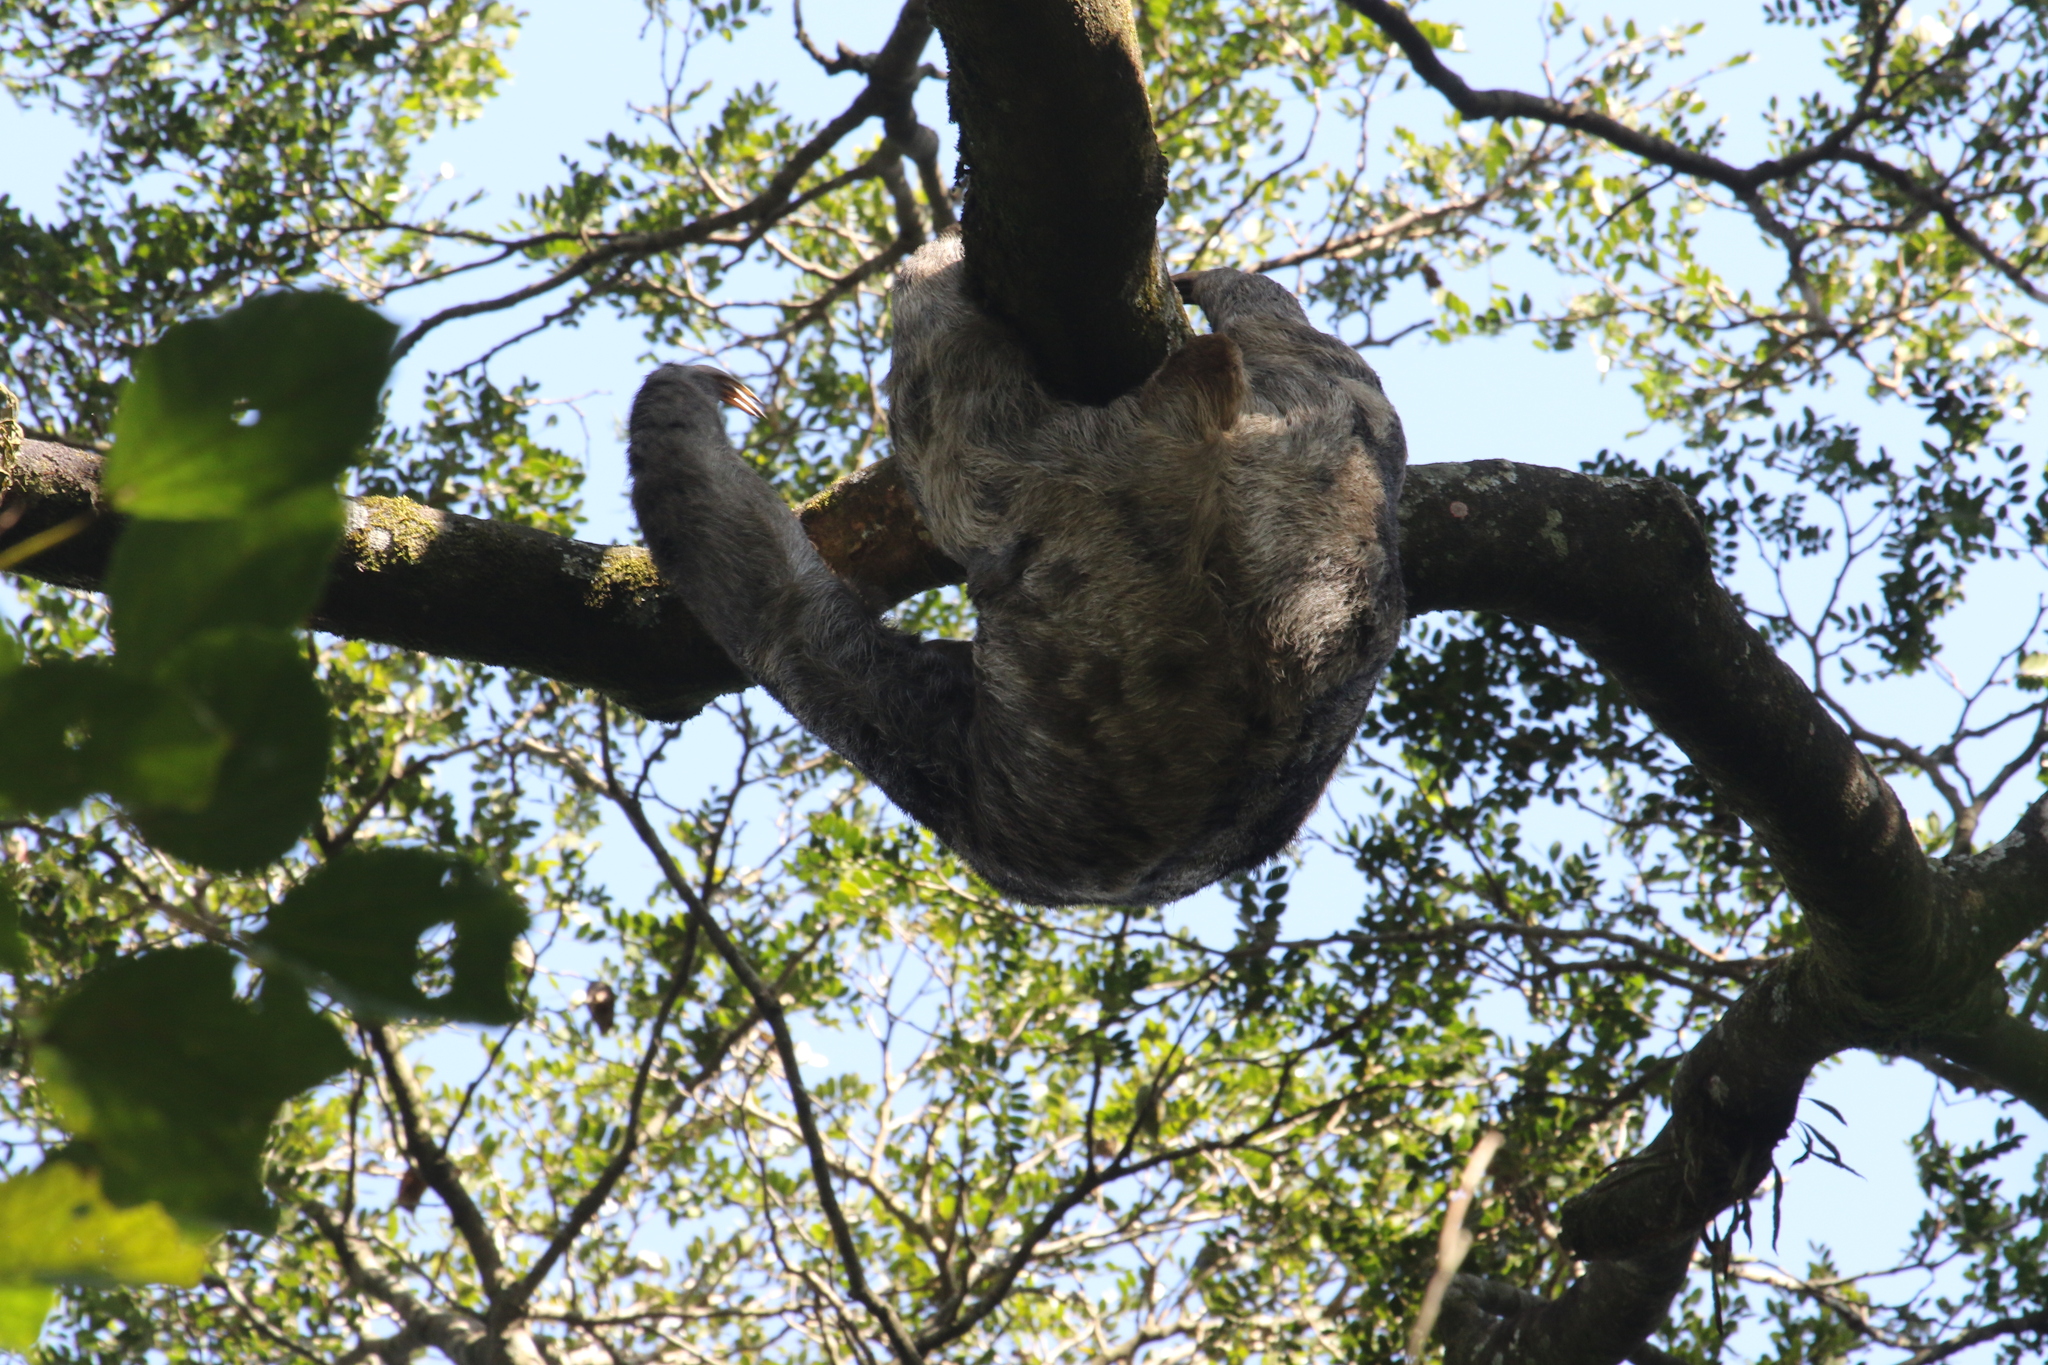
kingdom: Animalia
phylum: Chordata
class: Mammalia
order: Pilosa
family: Bradypodidae
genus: Bradypus
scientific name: Bradypus variegatus
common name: Brown-throated three-toed sloth
